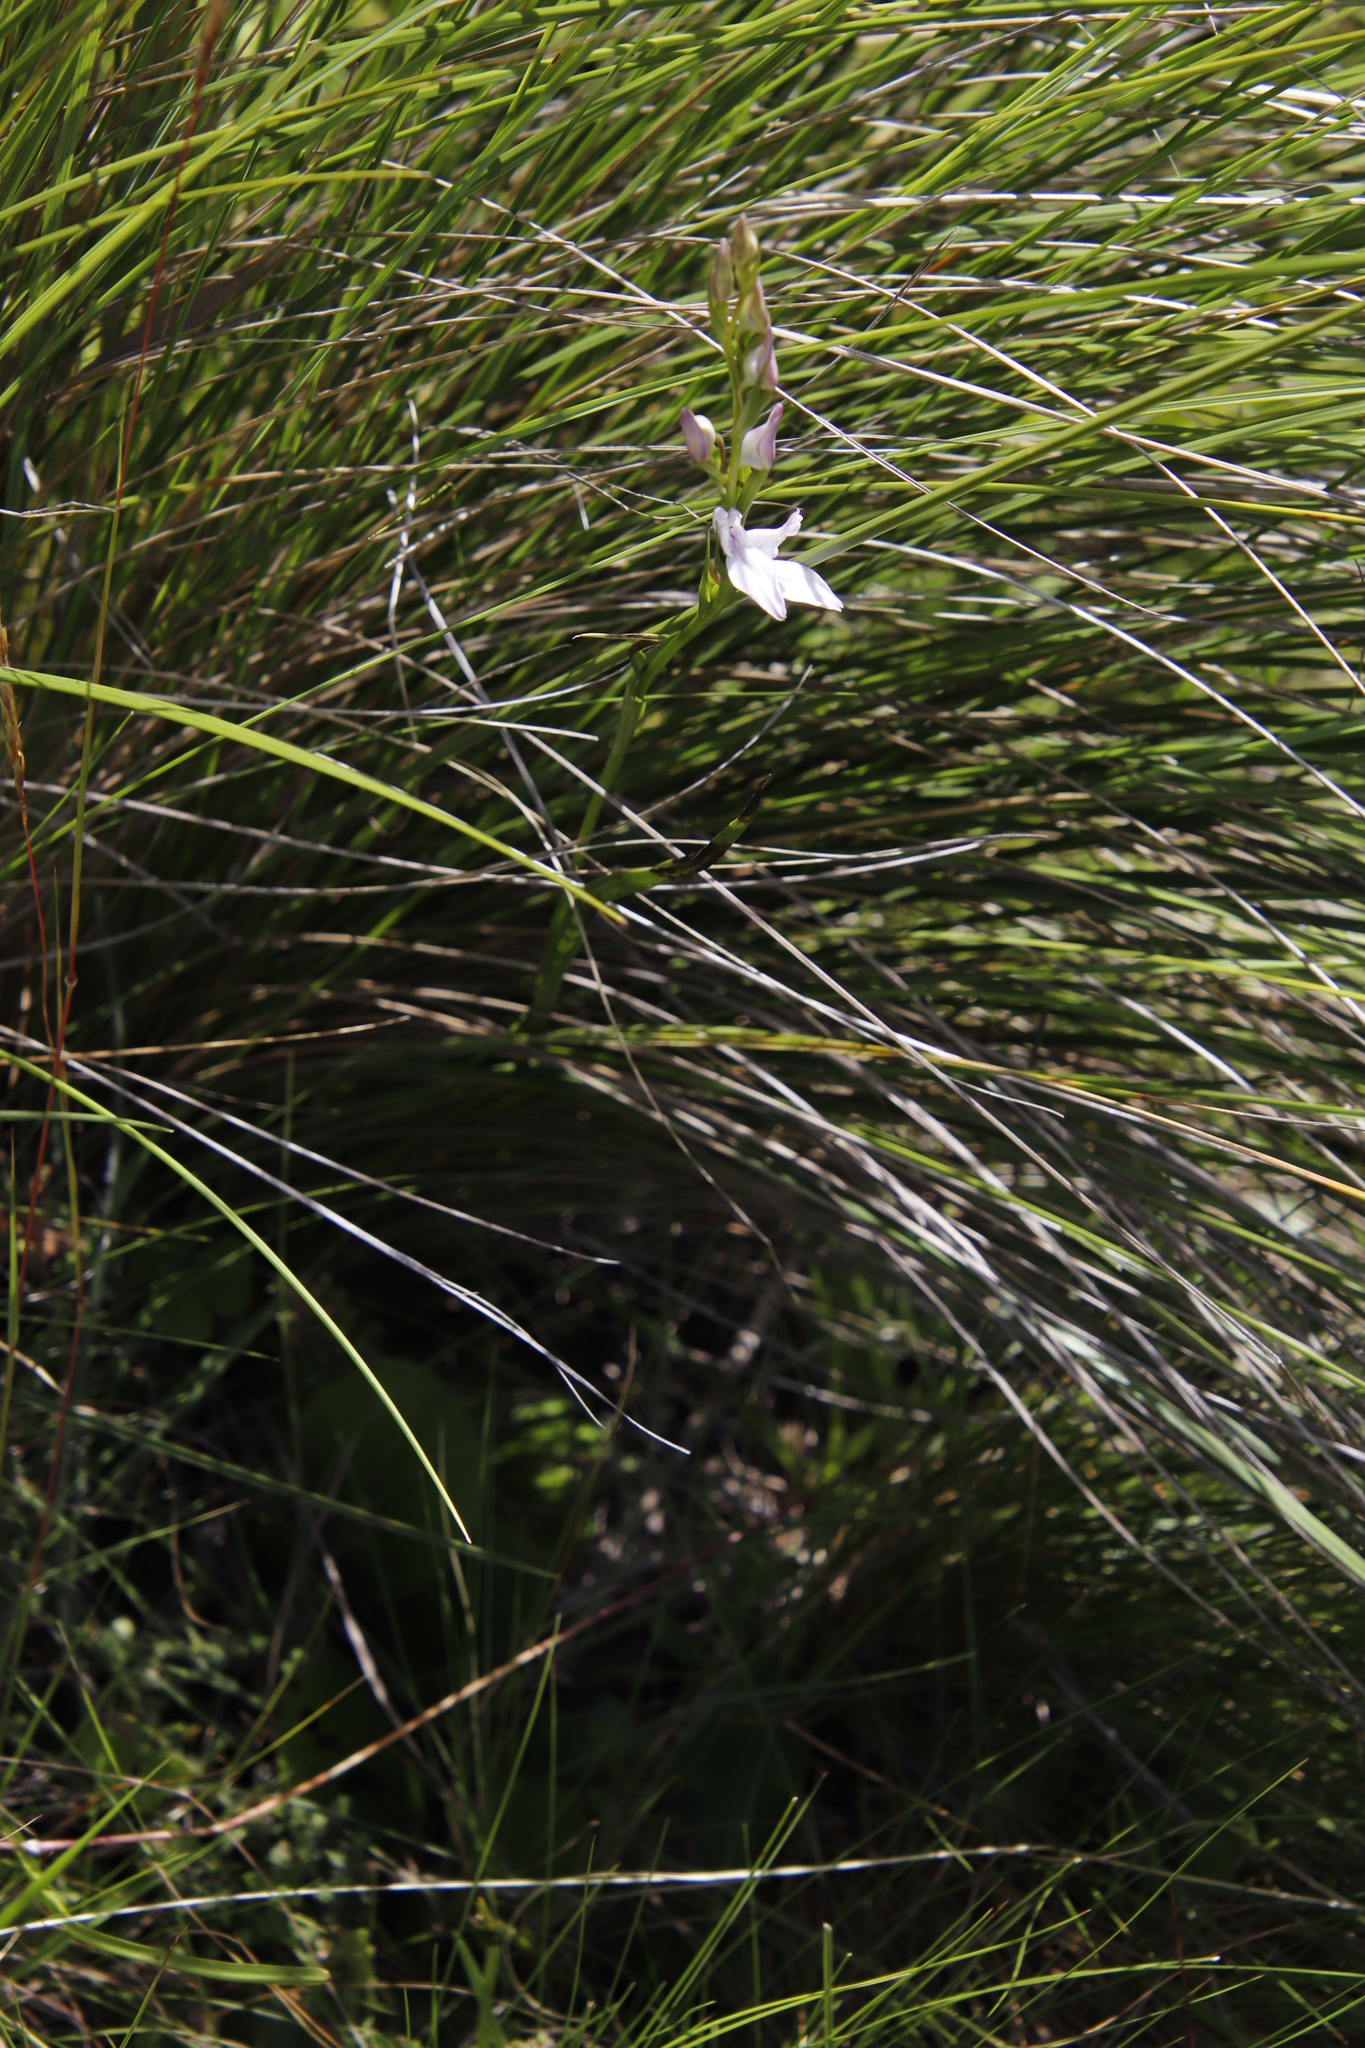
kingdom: Plantae
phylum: Tracheophyta
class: Liliopsida
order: Asparagales
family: Orchidaceae
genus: Brownleea
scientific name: Brownleea recurvata
